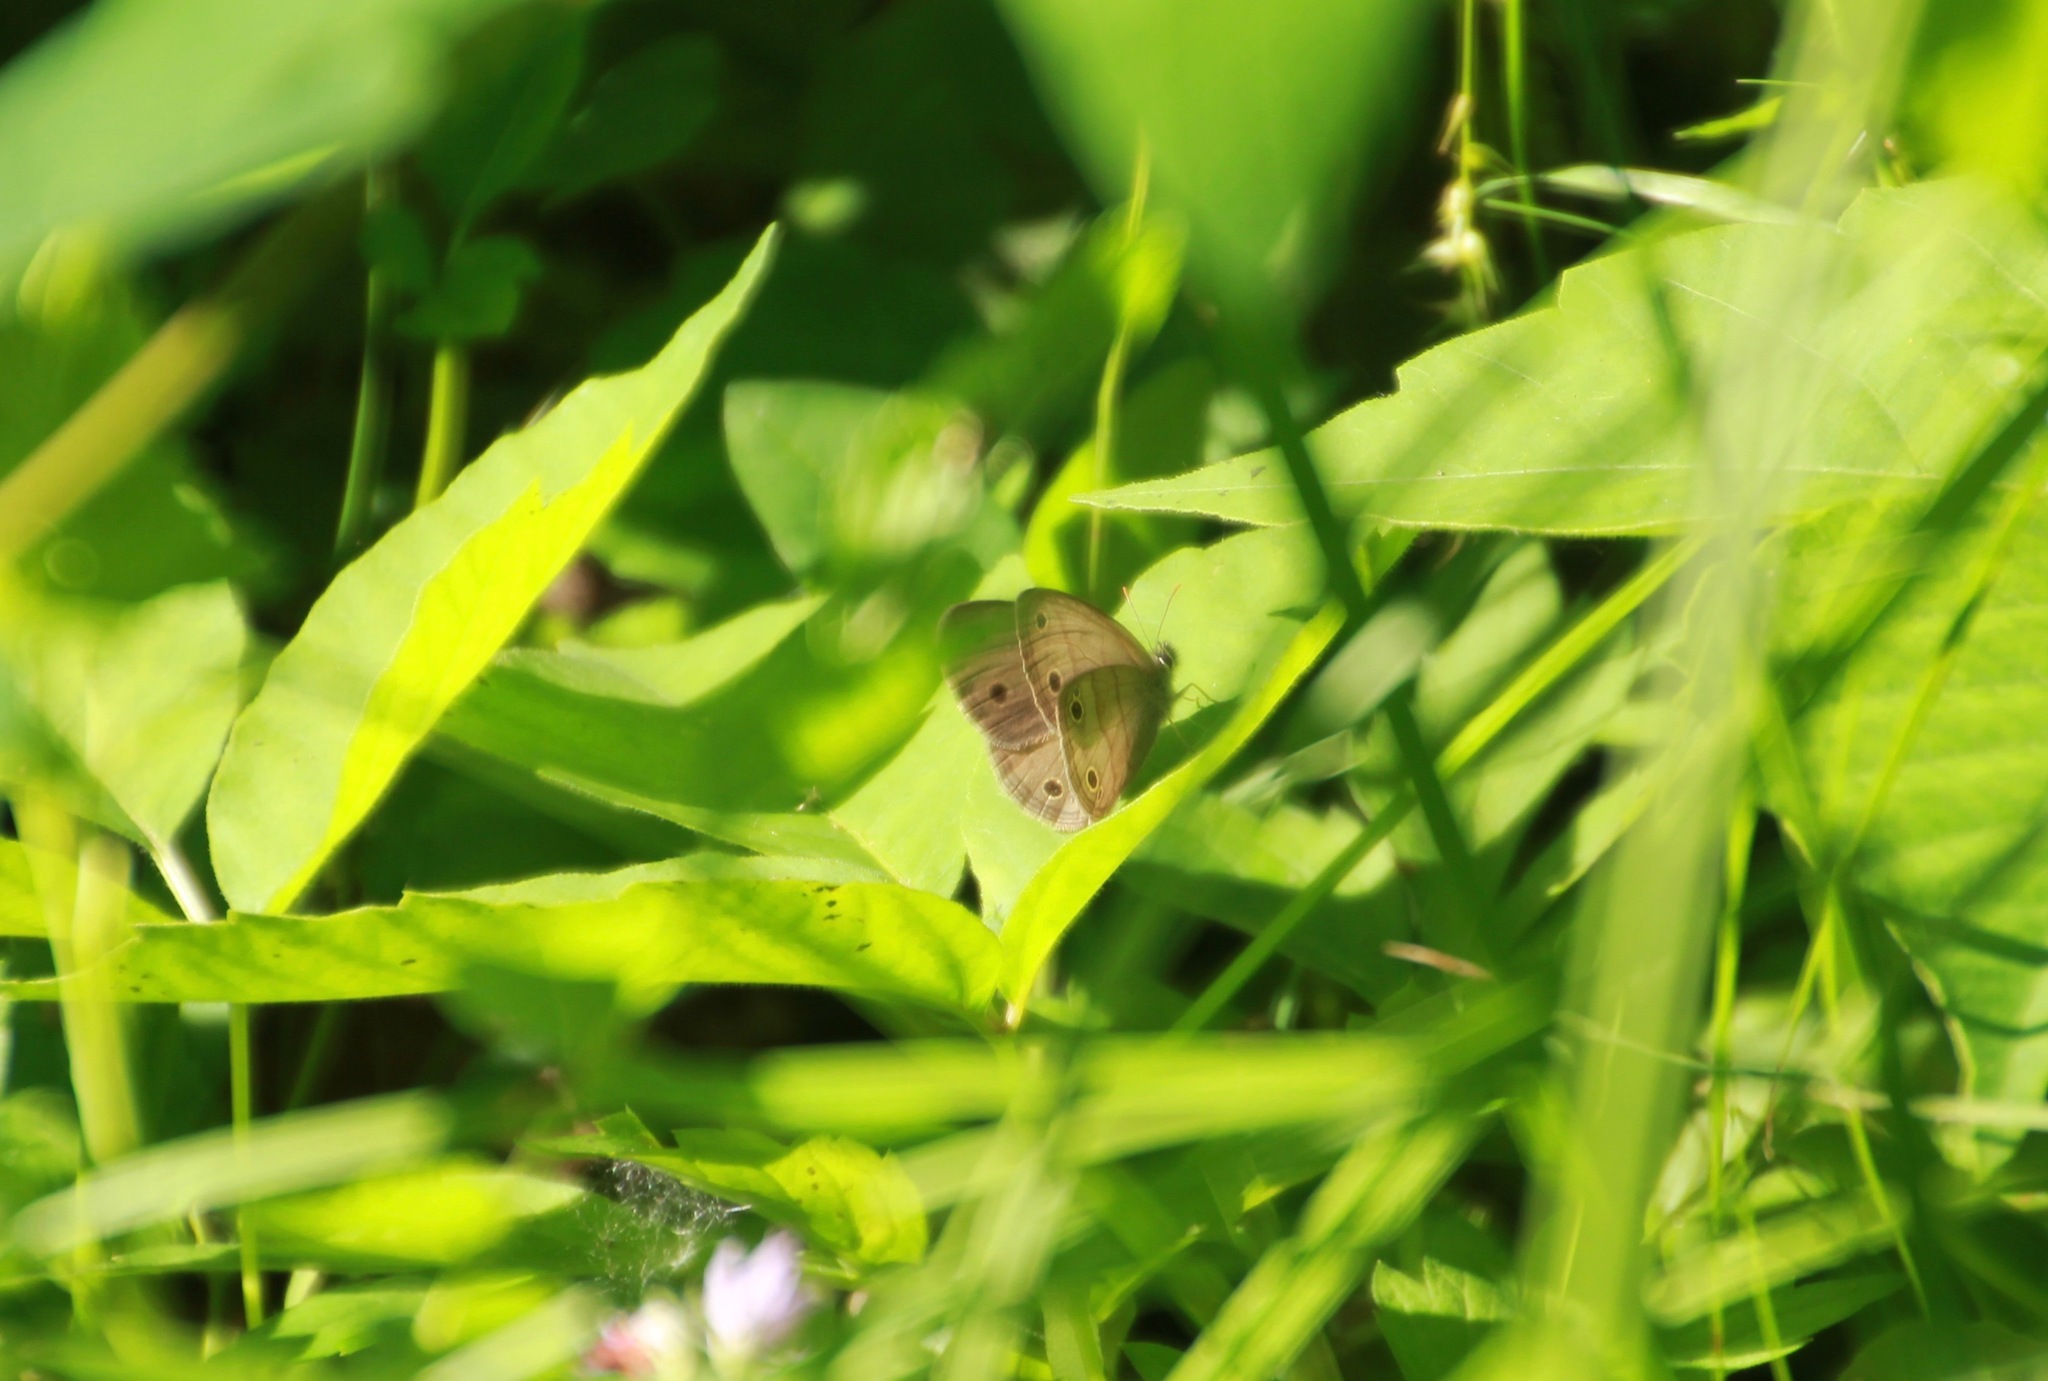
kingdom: Animalia
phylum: Arthropoda
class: Insecta
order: Lepidoptera
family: Nymphalidae
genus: Euptychia
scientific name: Euptychia cymela
